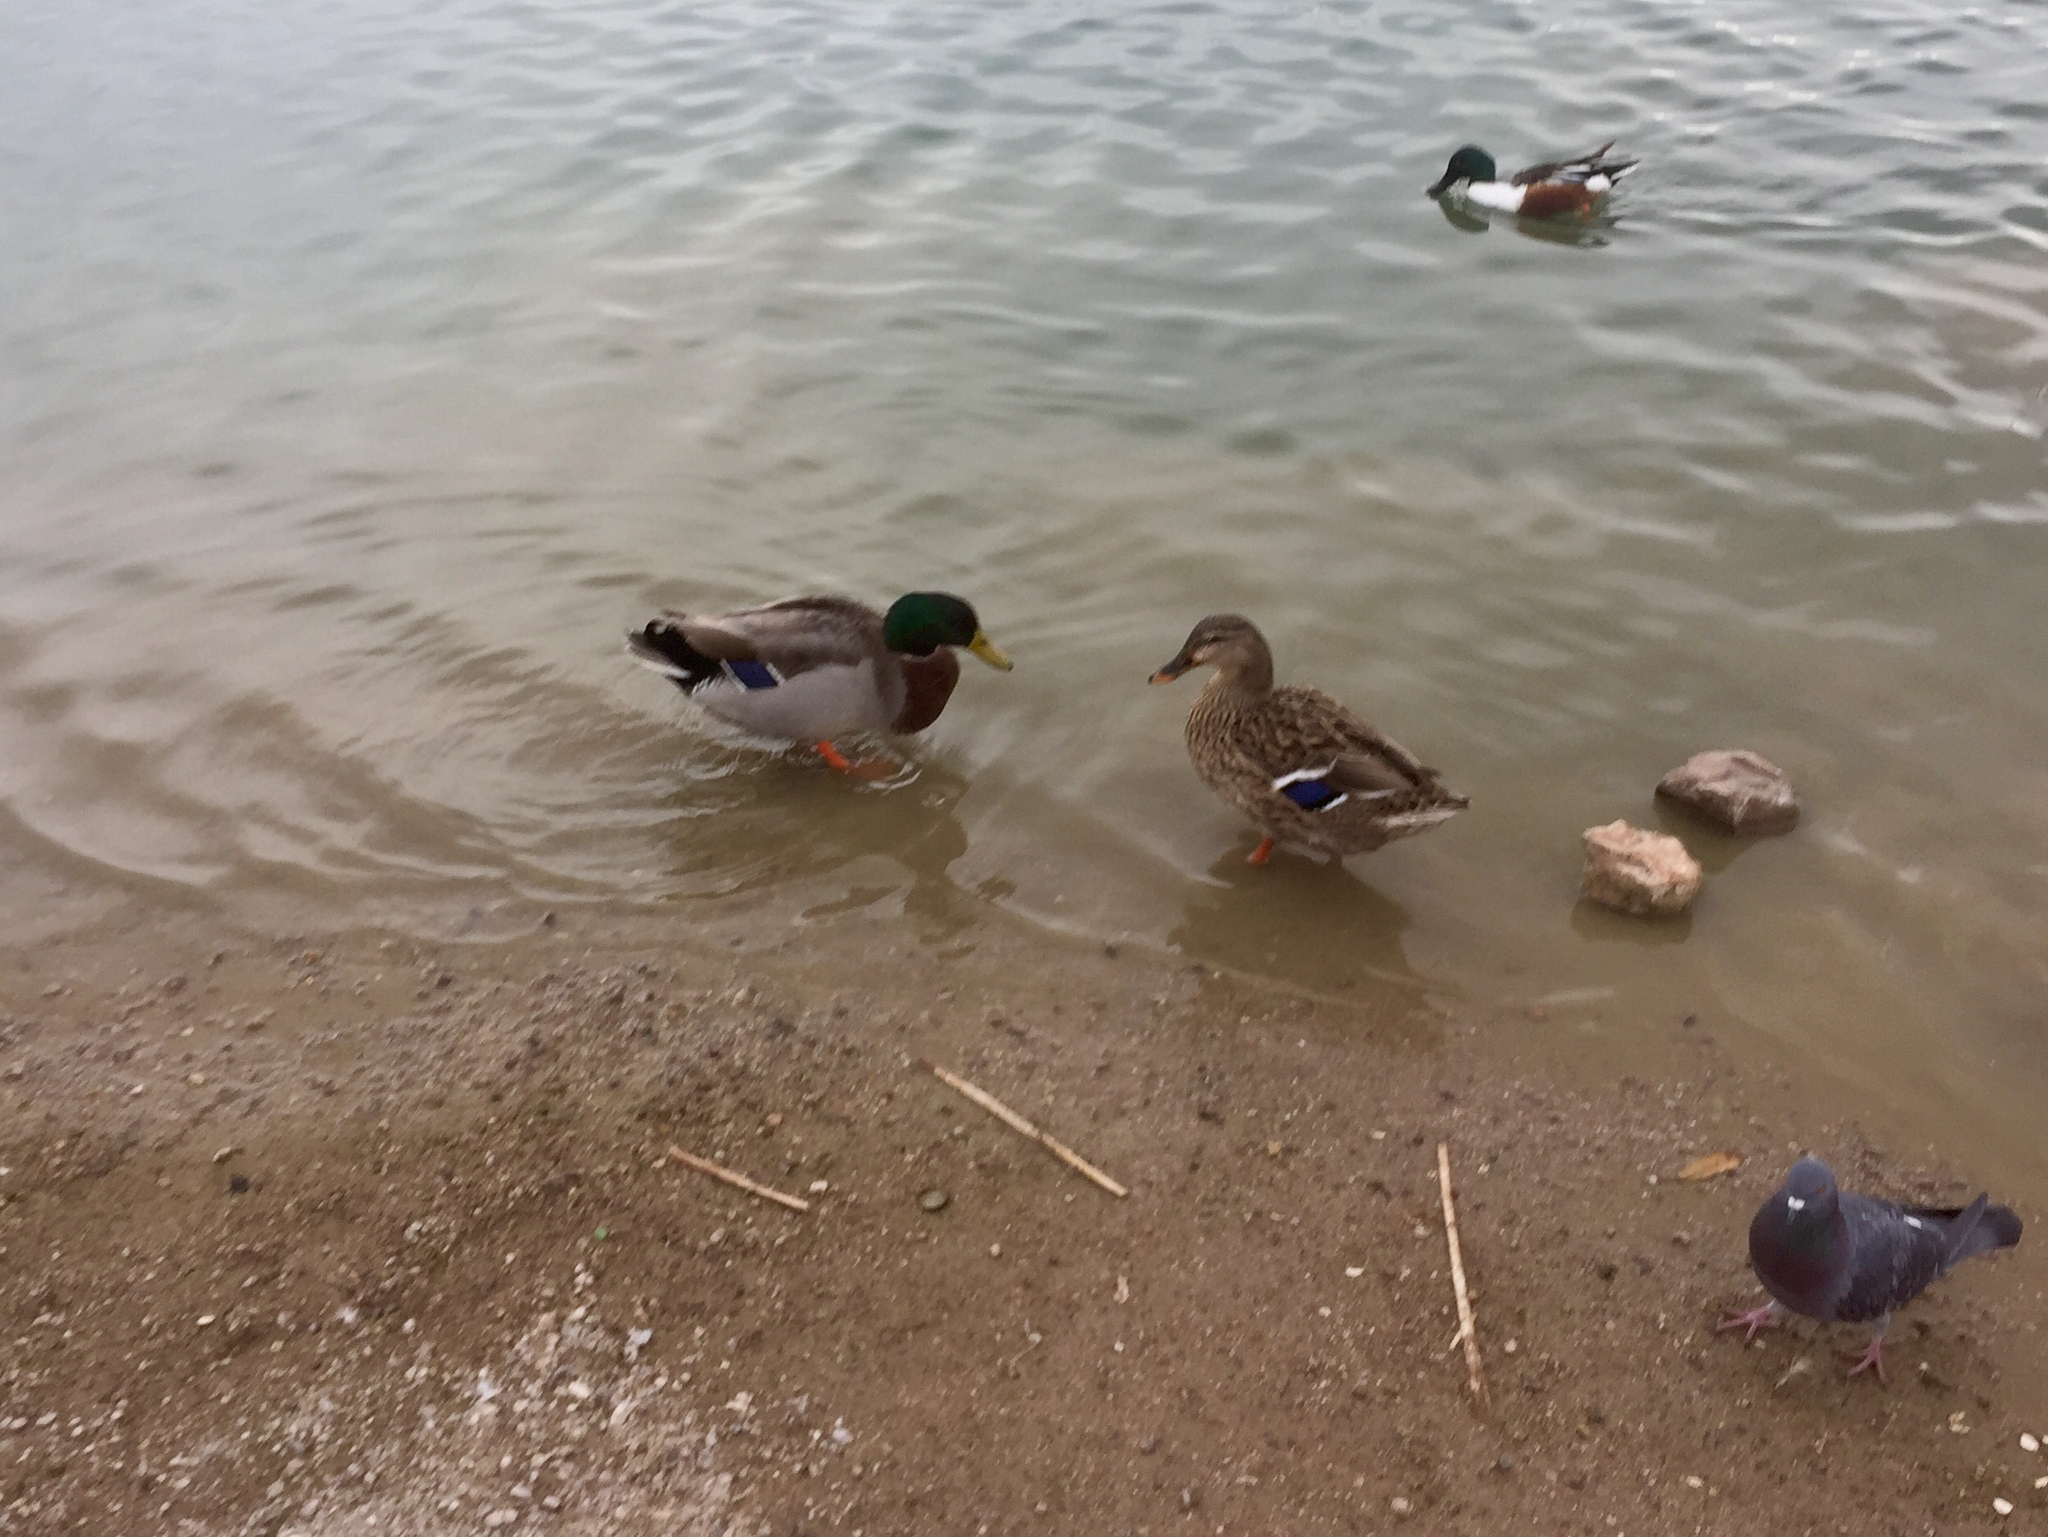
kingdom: Animalia
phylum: Chordata
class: Aves
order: Anseriformes
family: Anatidae
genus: Anas
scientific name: Anas platyrhynchos
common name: Mallard
